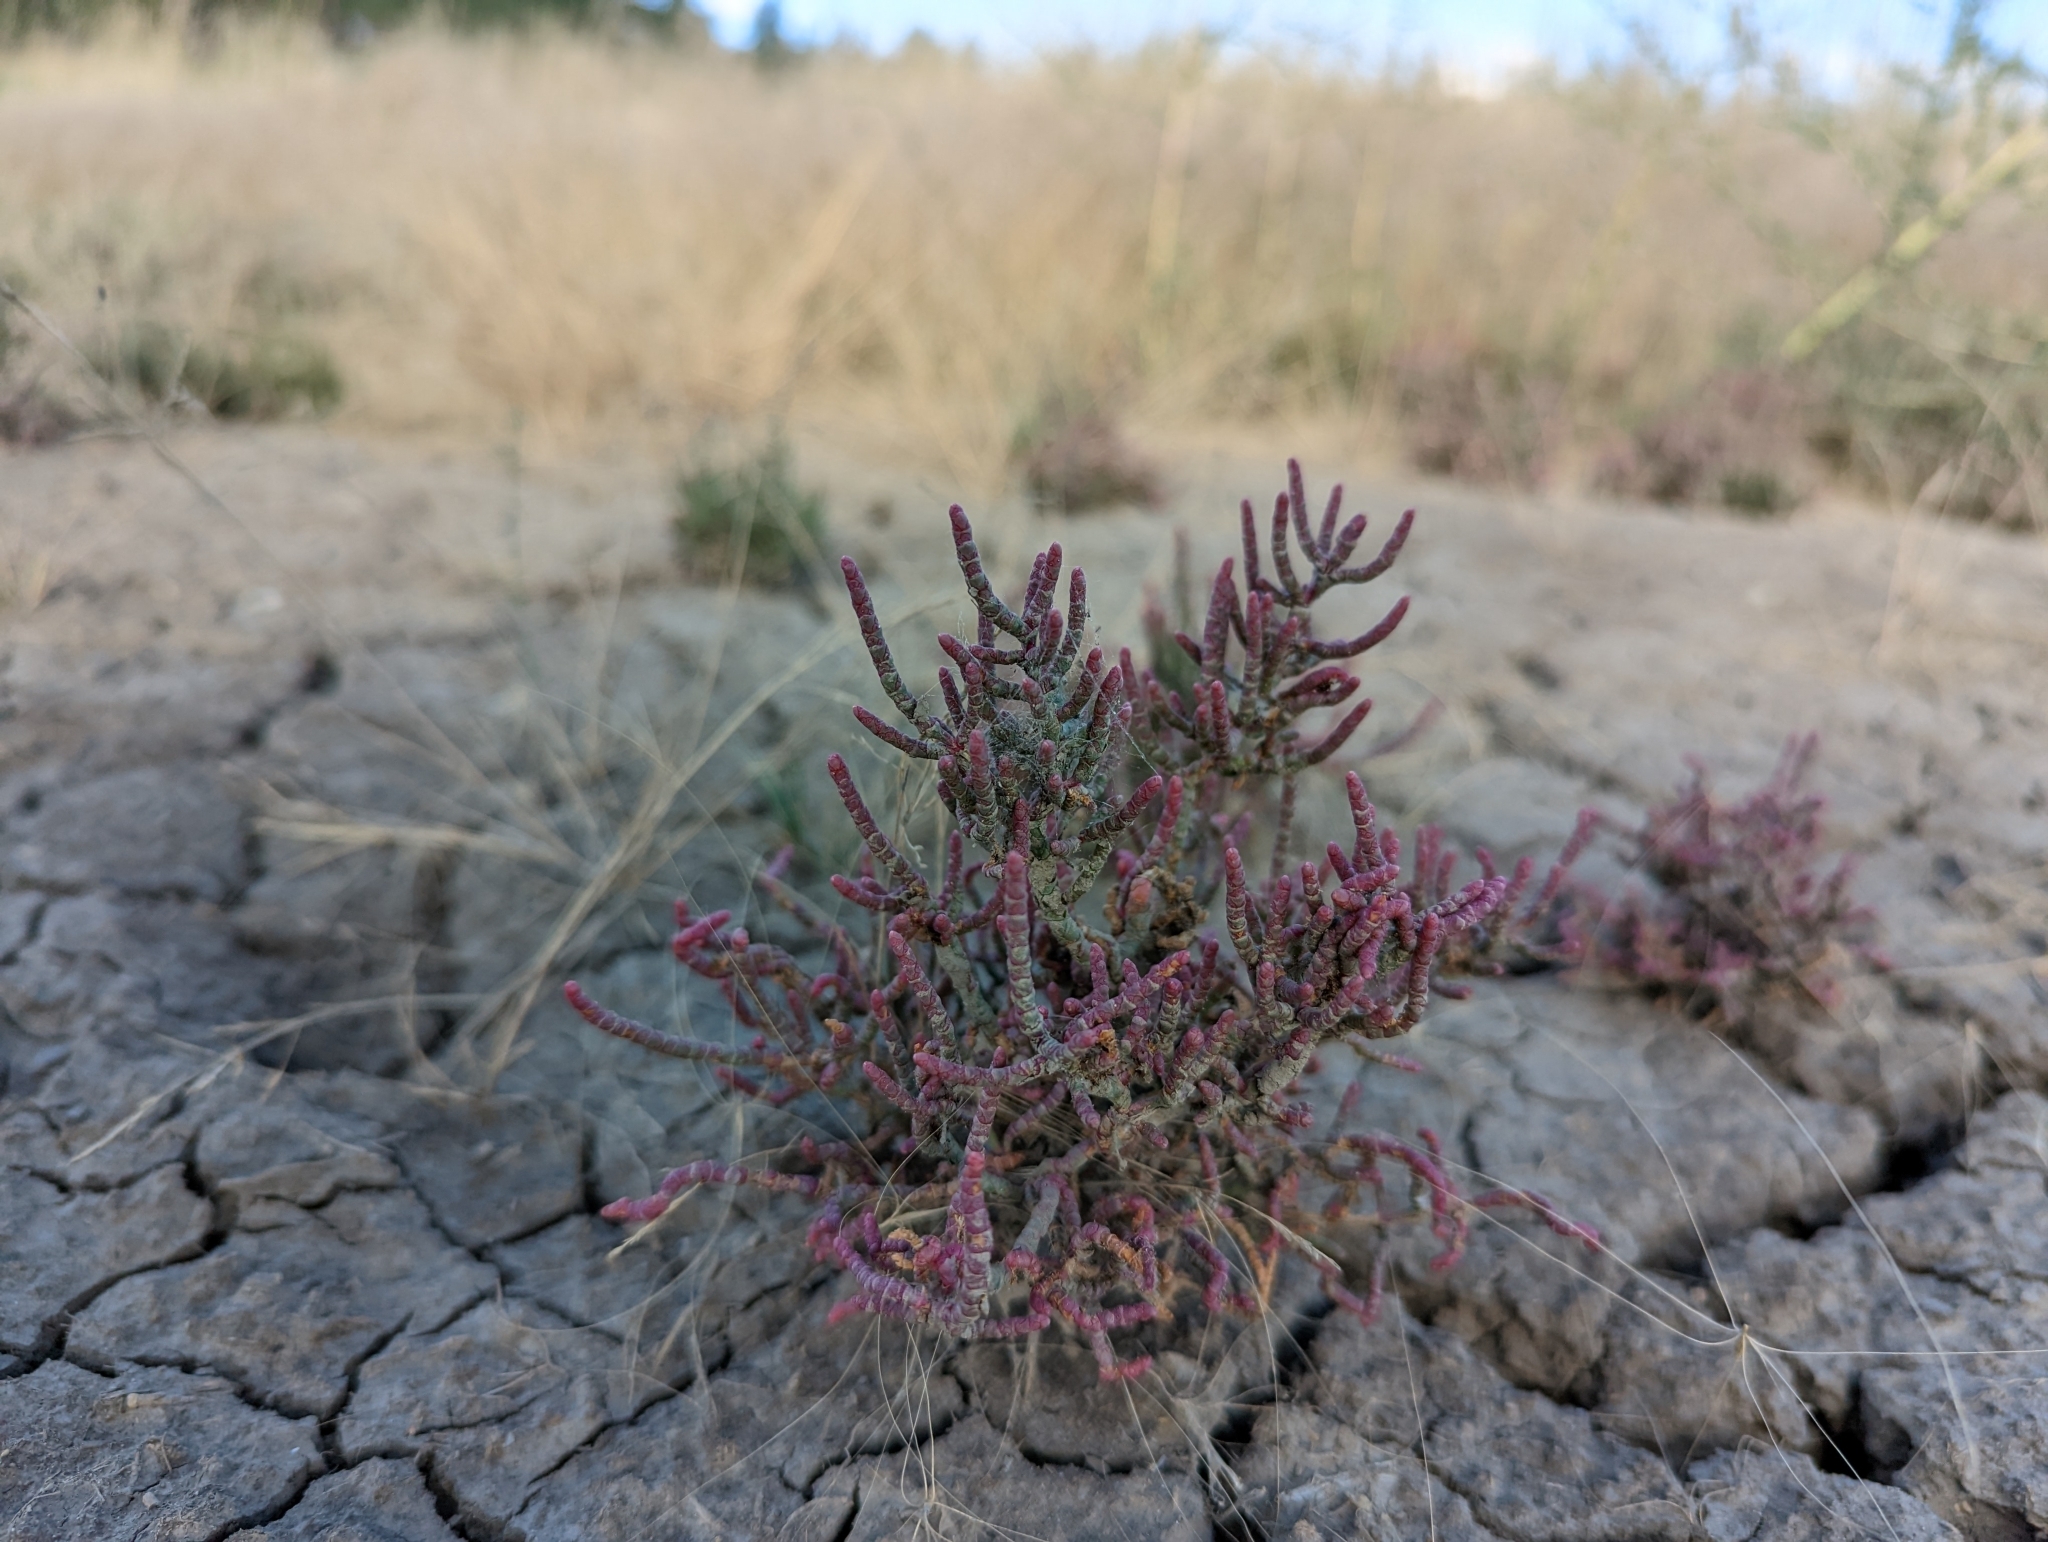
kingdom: Plantae
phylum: Tracheophyta
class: Magnoliopsida
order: Caryophyllales
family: Amaranthaceae
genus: Salicornia
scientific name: Salicornia rubra
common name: Red glasswort
